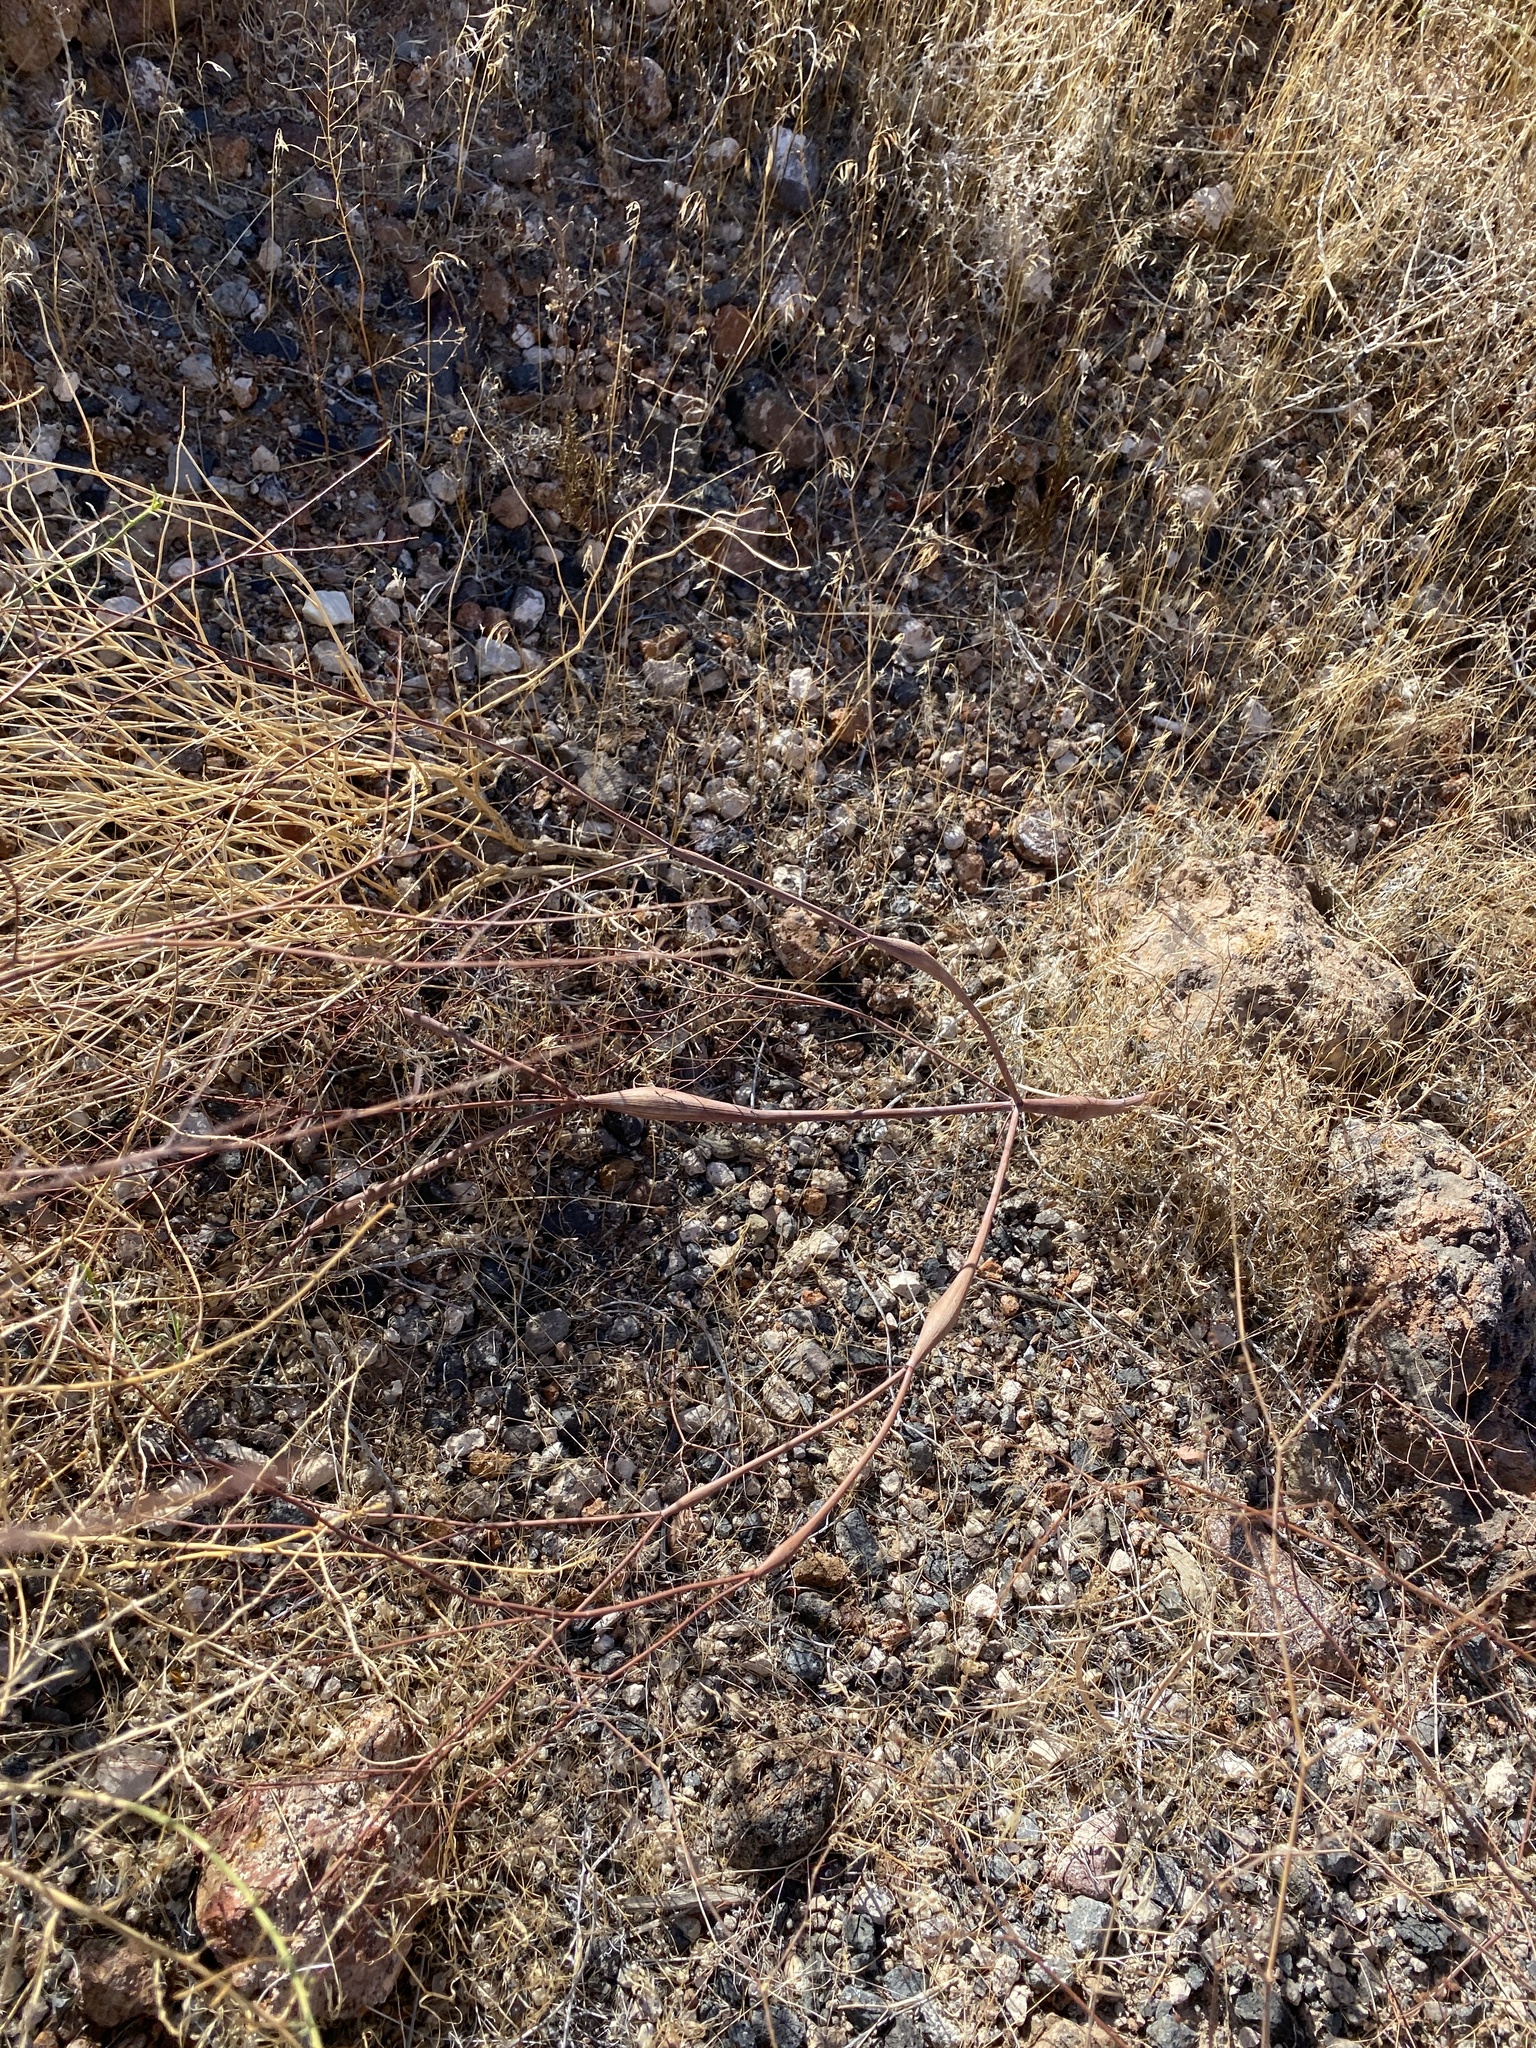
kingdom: Plantae
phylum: Tracheophyta
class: Magnoliopsida
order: Caryophyllales
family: Polygonaceae
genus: Eriogonum
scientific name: Eriogonum inflatum
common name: Desert trumpet
